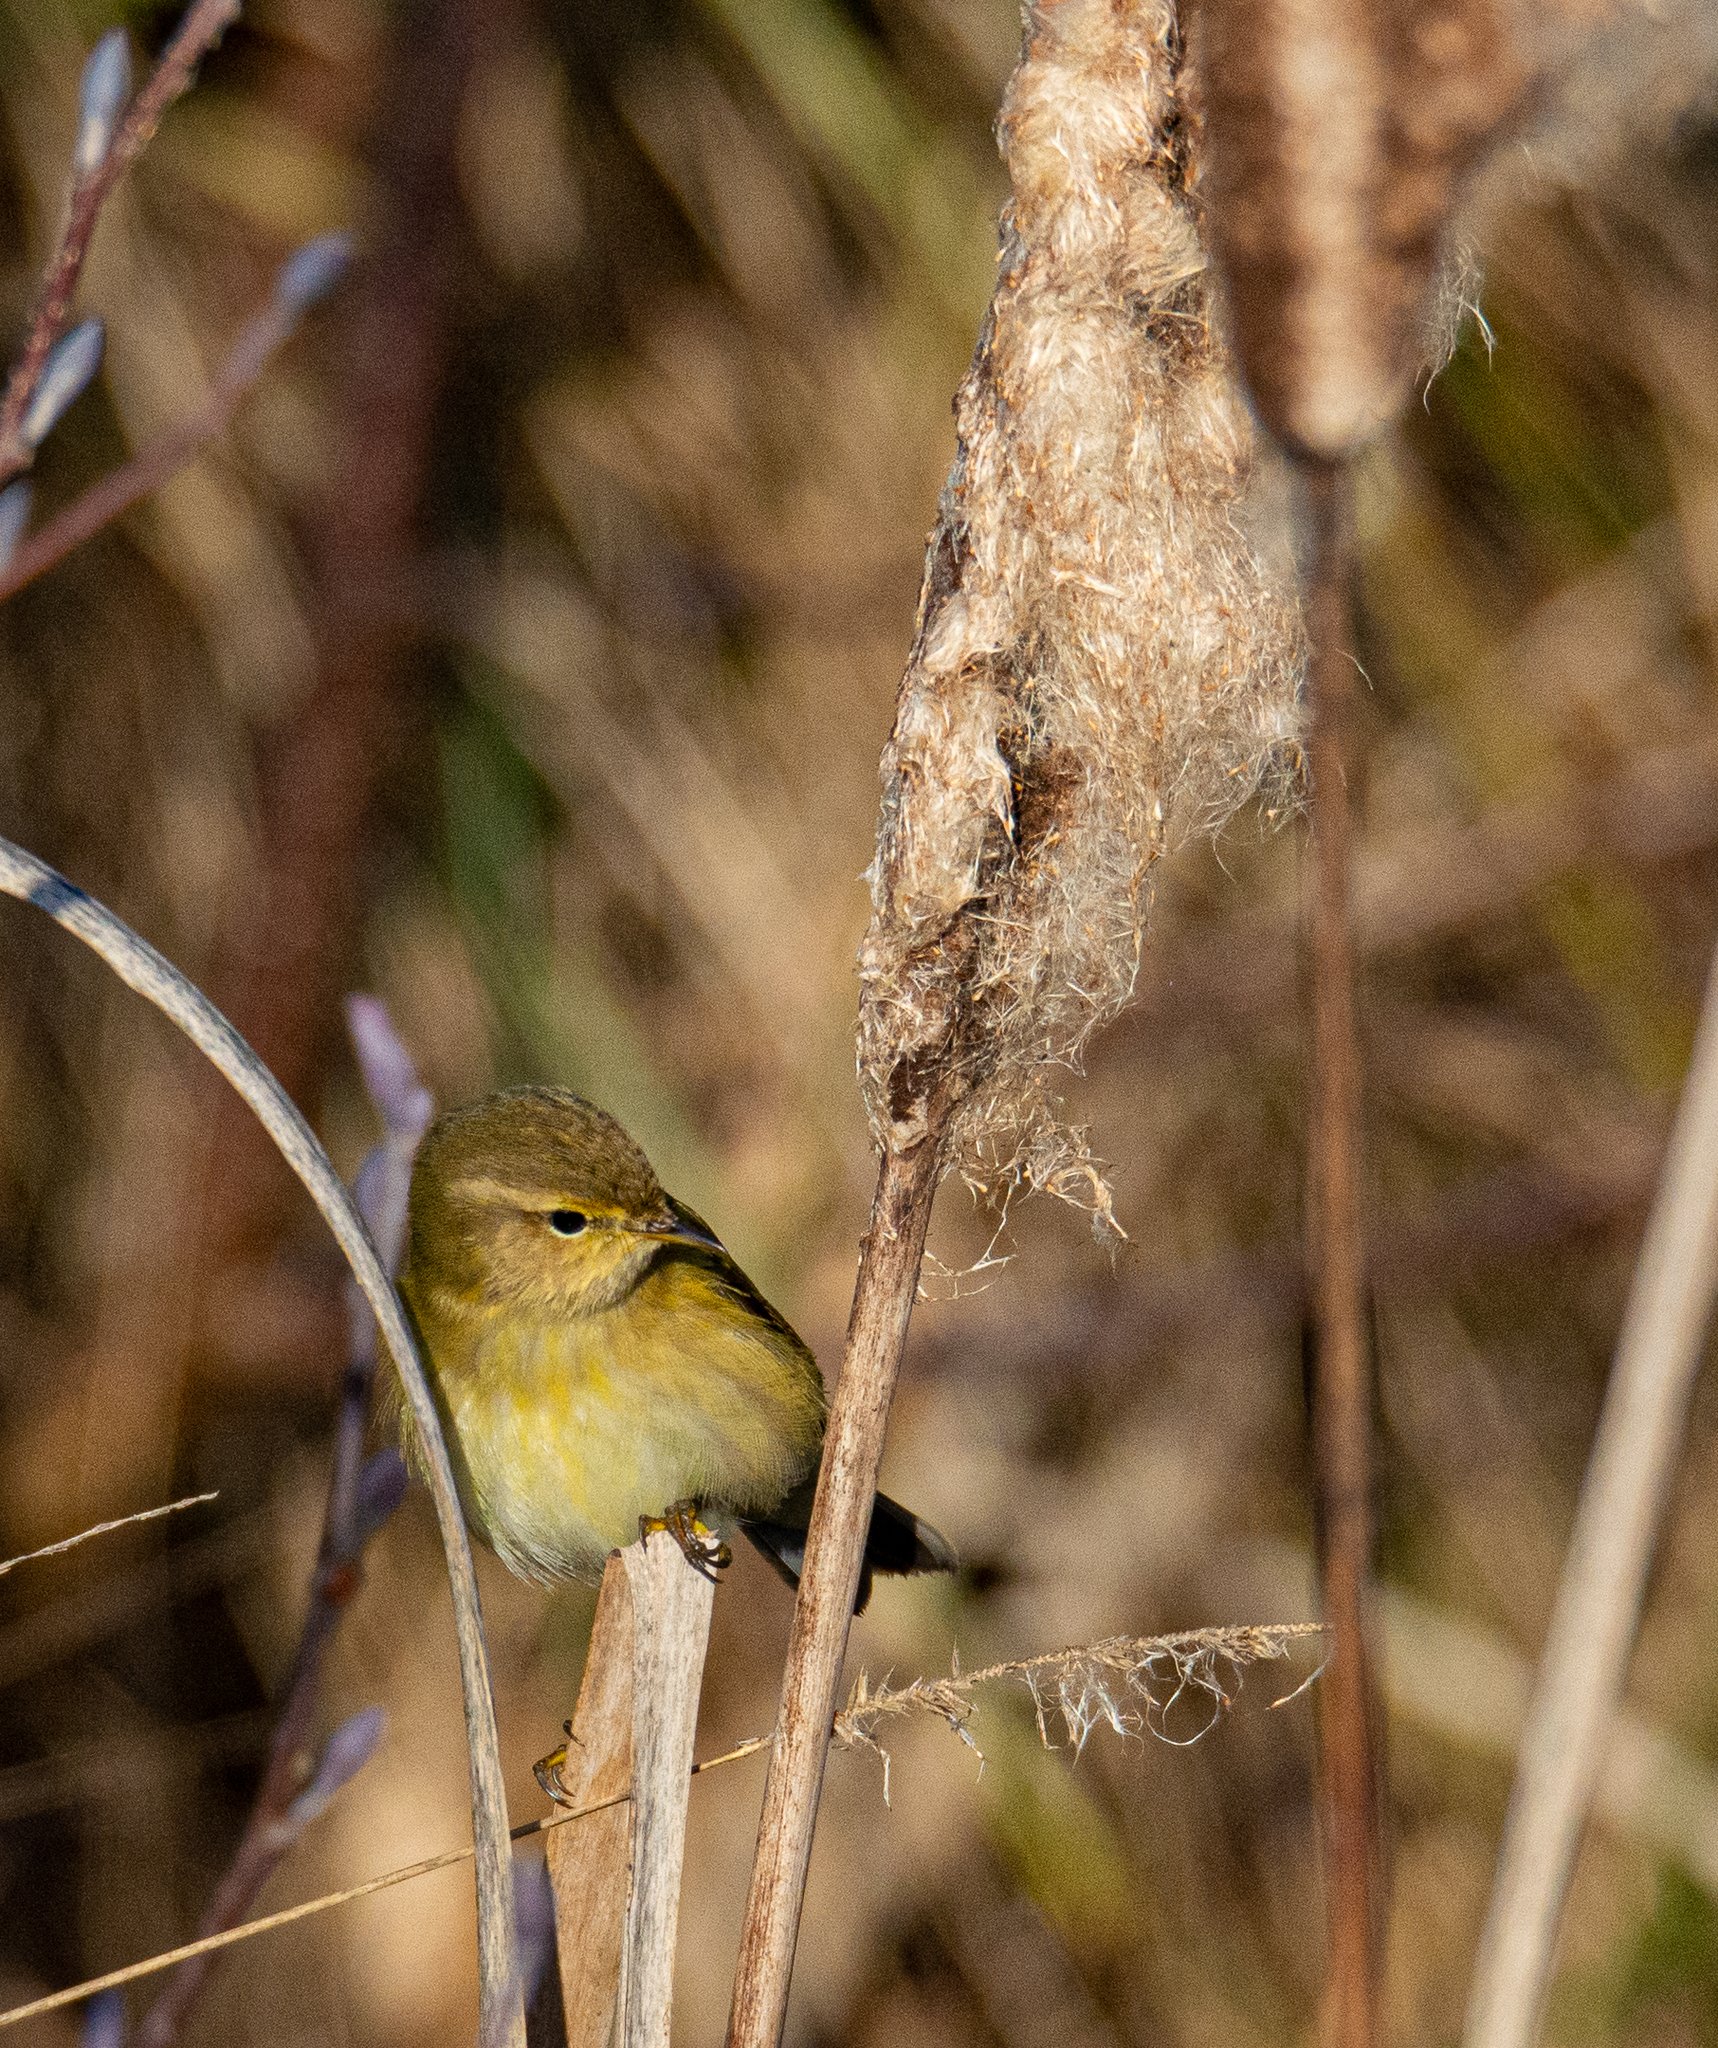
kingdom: Animalia
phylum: Chordata
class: Aves
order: Passeriformes
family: Phylloscopidae
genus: Phylloscopus
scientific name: Phylloscopus trochilus
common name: Willow warbler
